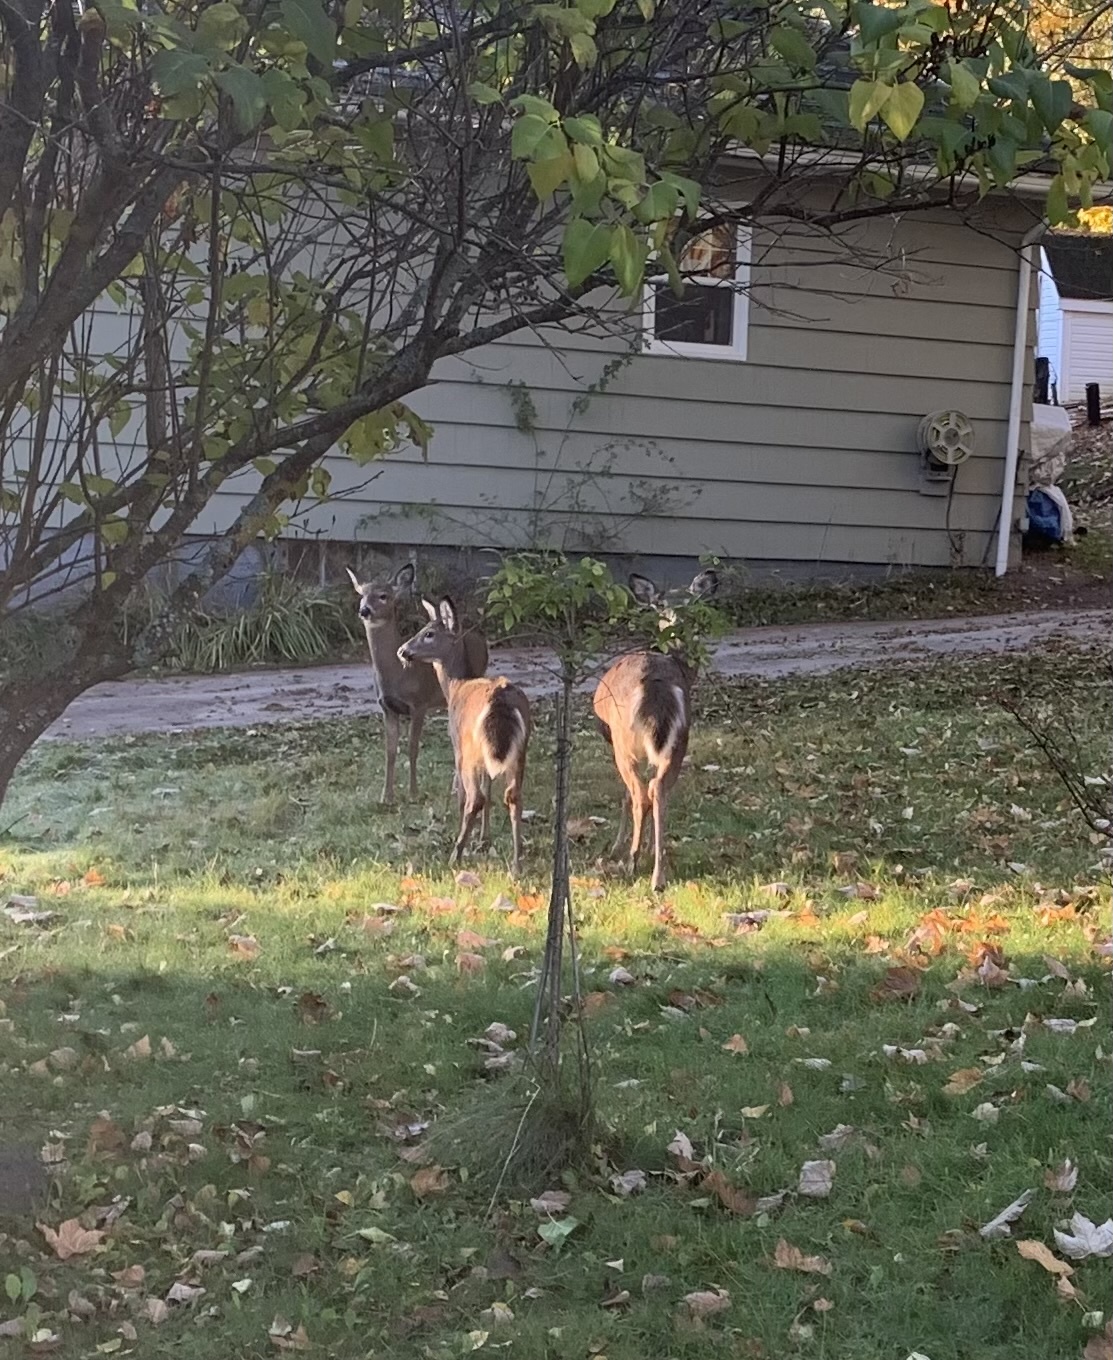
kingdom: Animalia
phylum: Chordata
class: Mammalia
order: Artiodactyla
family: Cervidae
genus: Odocoileus
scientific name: Odocoileus virginianus
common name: White-tailed deer
